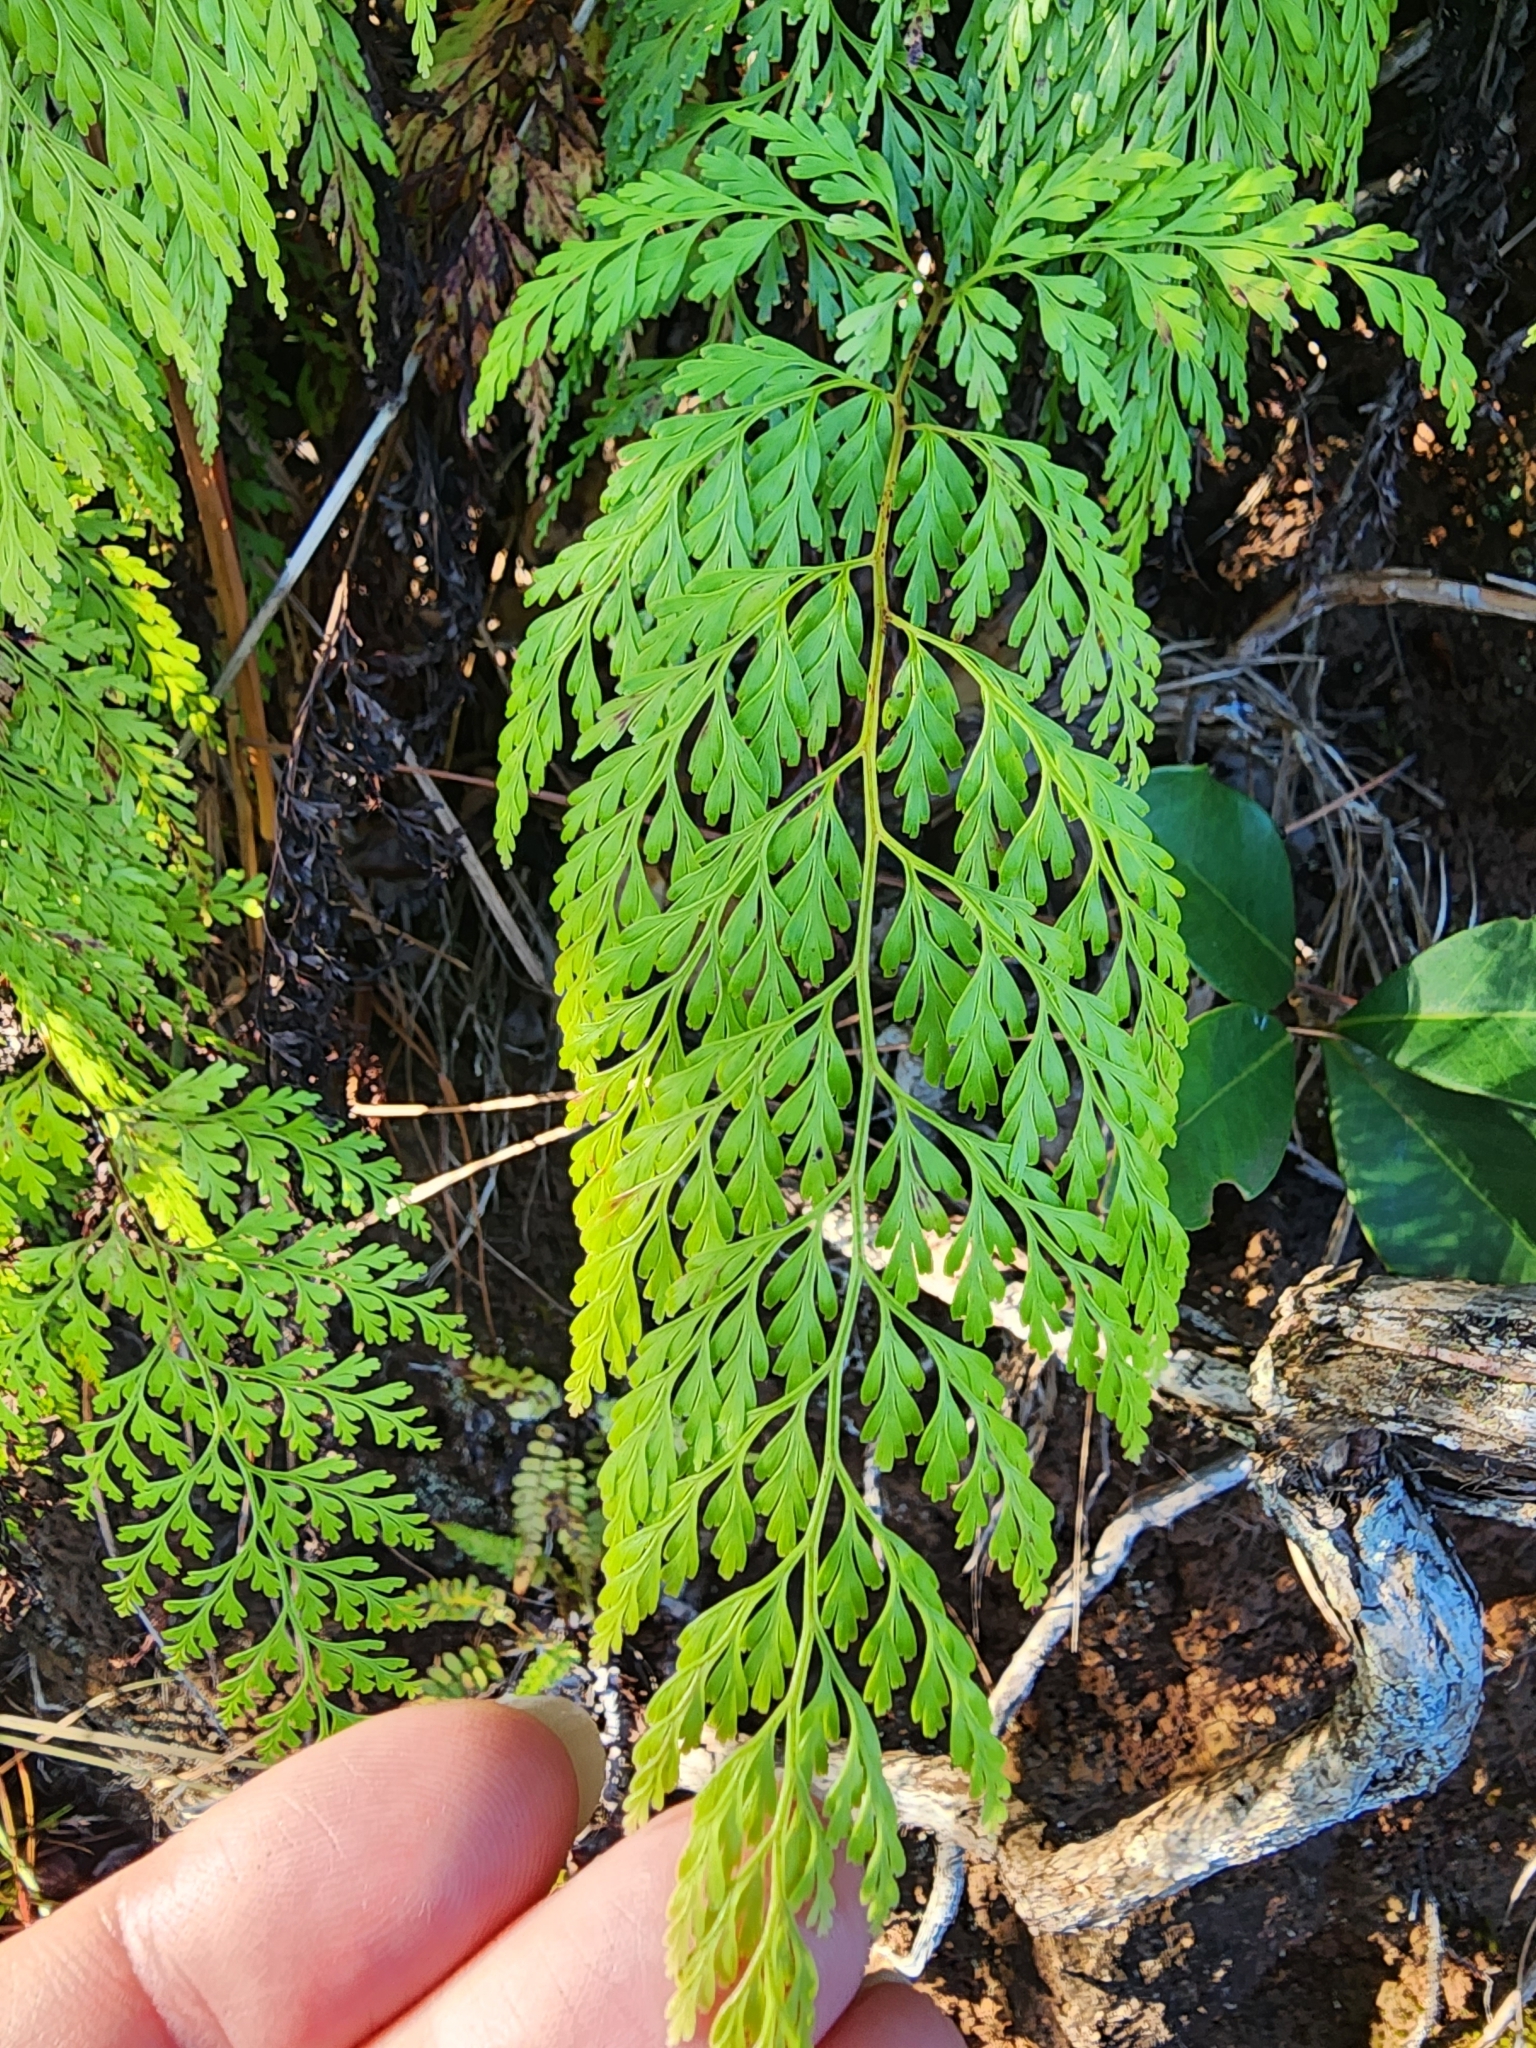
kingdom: Plantae
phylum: Tracheophyta
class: Polypodiopsida
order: Polypodiales
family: Lindsaeaceae
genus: Odontosoria
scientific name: Odontosoria chinensis
